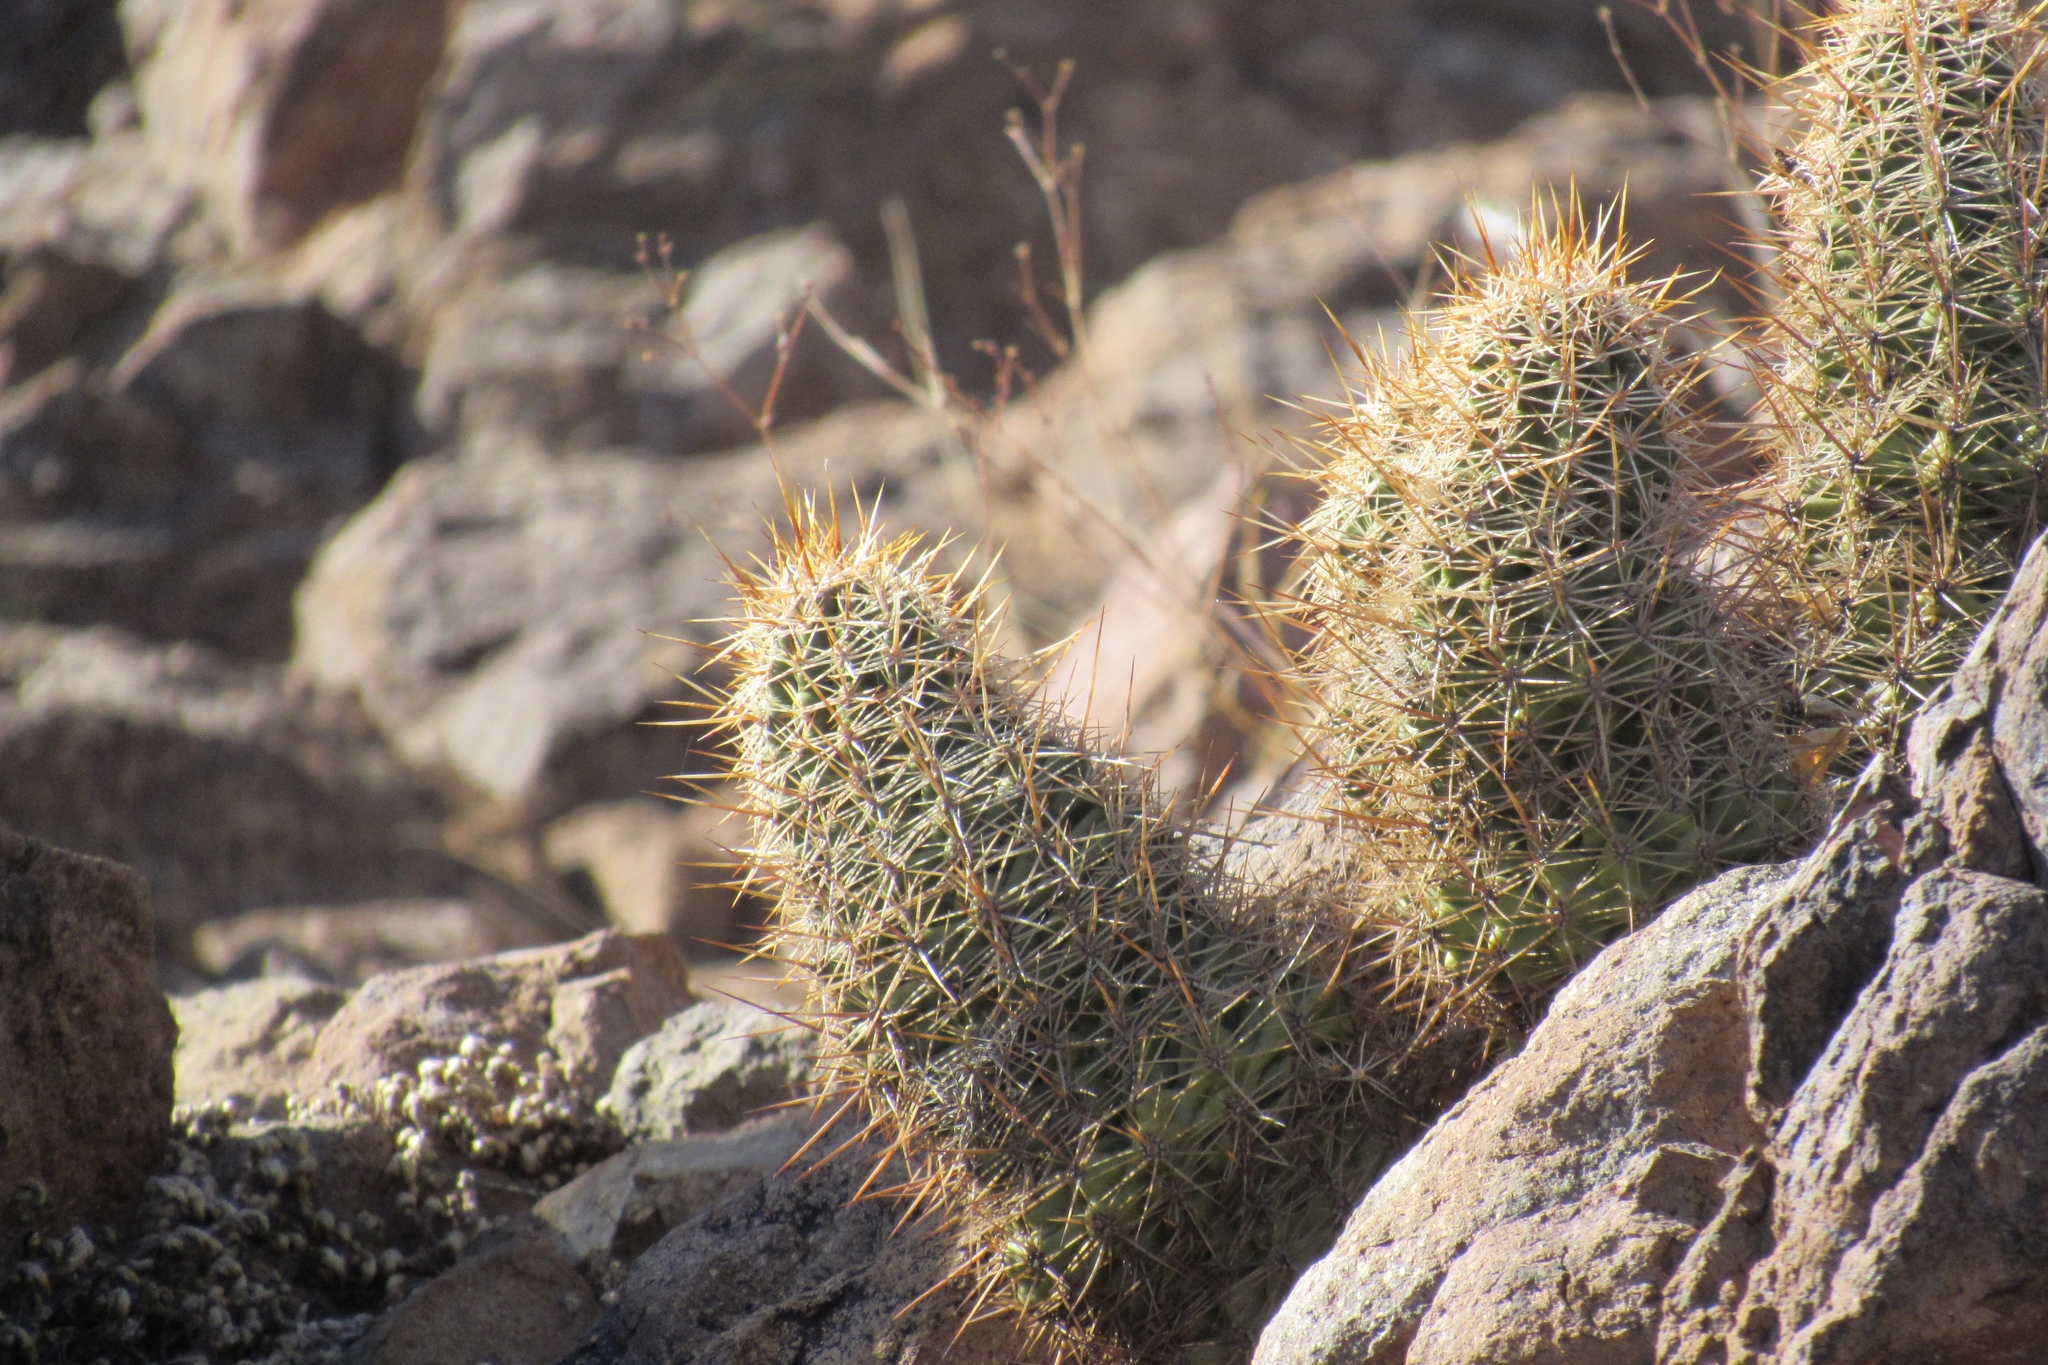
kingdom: Plantae
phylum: Tracheophyta
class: Magnoliopsida
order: Caryophyllales
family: Cactaceae
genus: Echinocereus
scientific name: Echinocereus fasciculatus
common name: Bundle hedgehog
